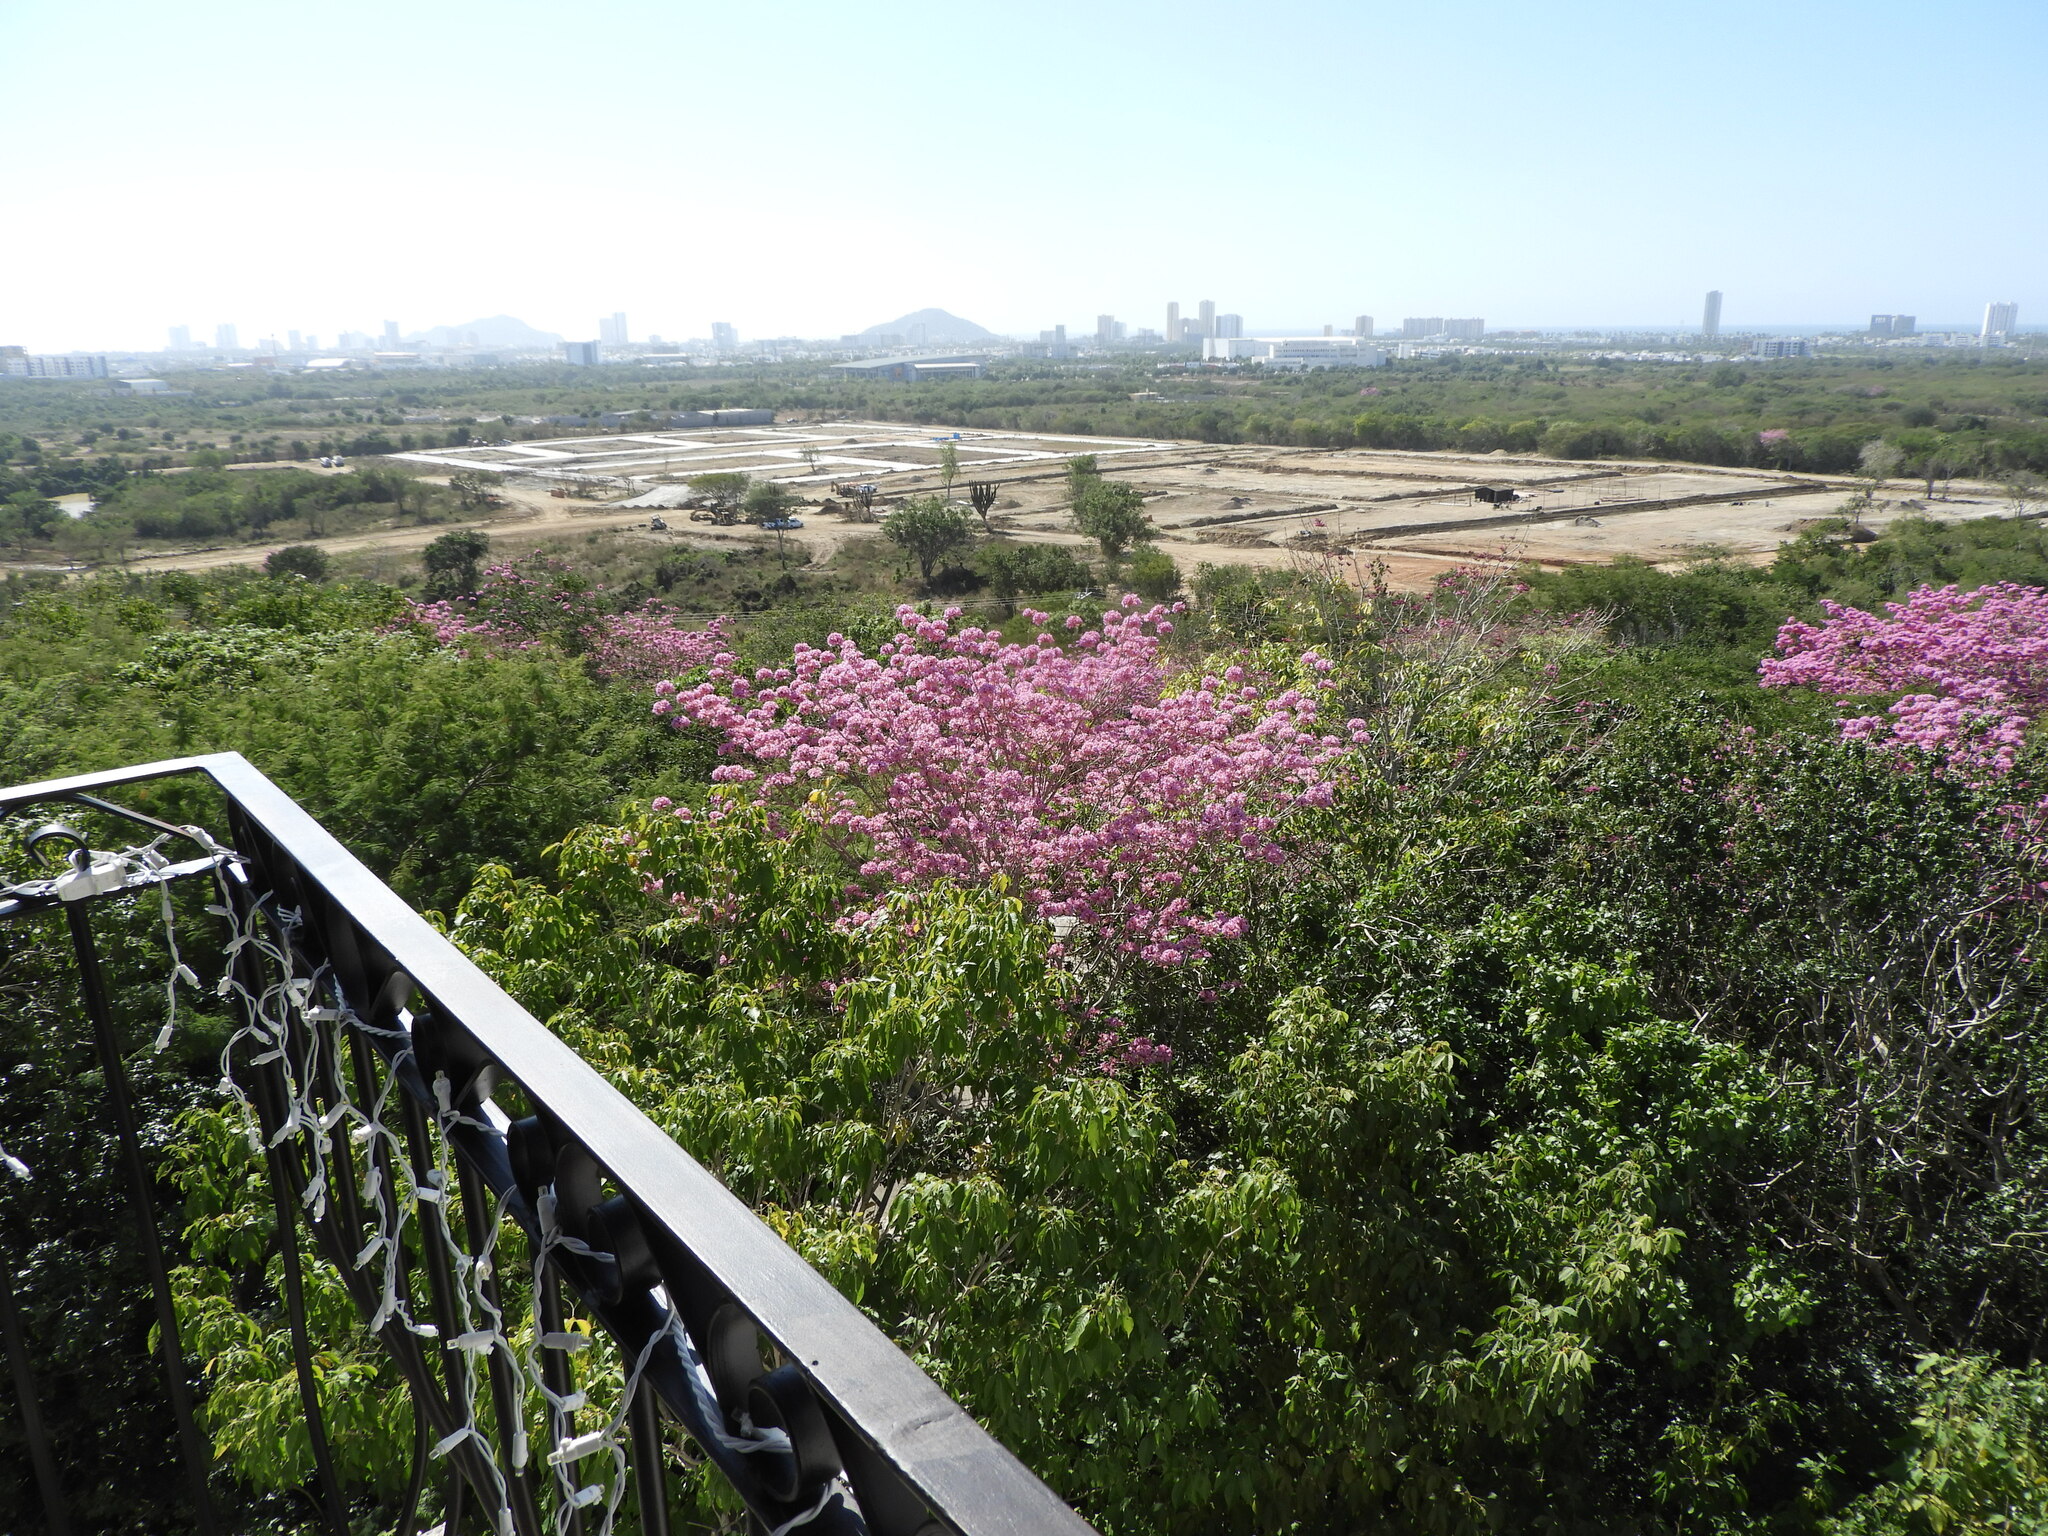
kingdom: Plantae
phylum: Tracheophyta
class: Magnoliopsida
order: Lamiales
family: Bignoniaceae
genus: Handroanthus
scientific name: Handroanthus impetiginosum
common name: Pink trumpet tree
